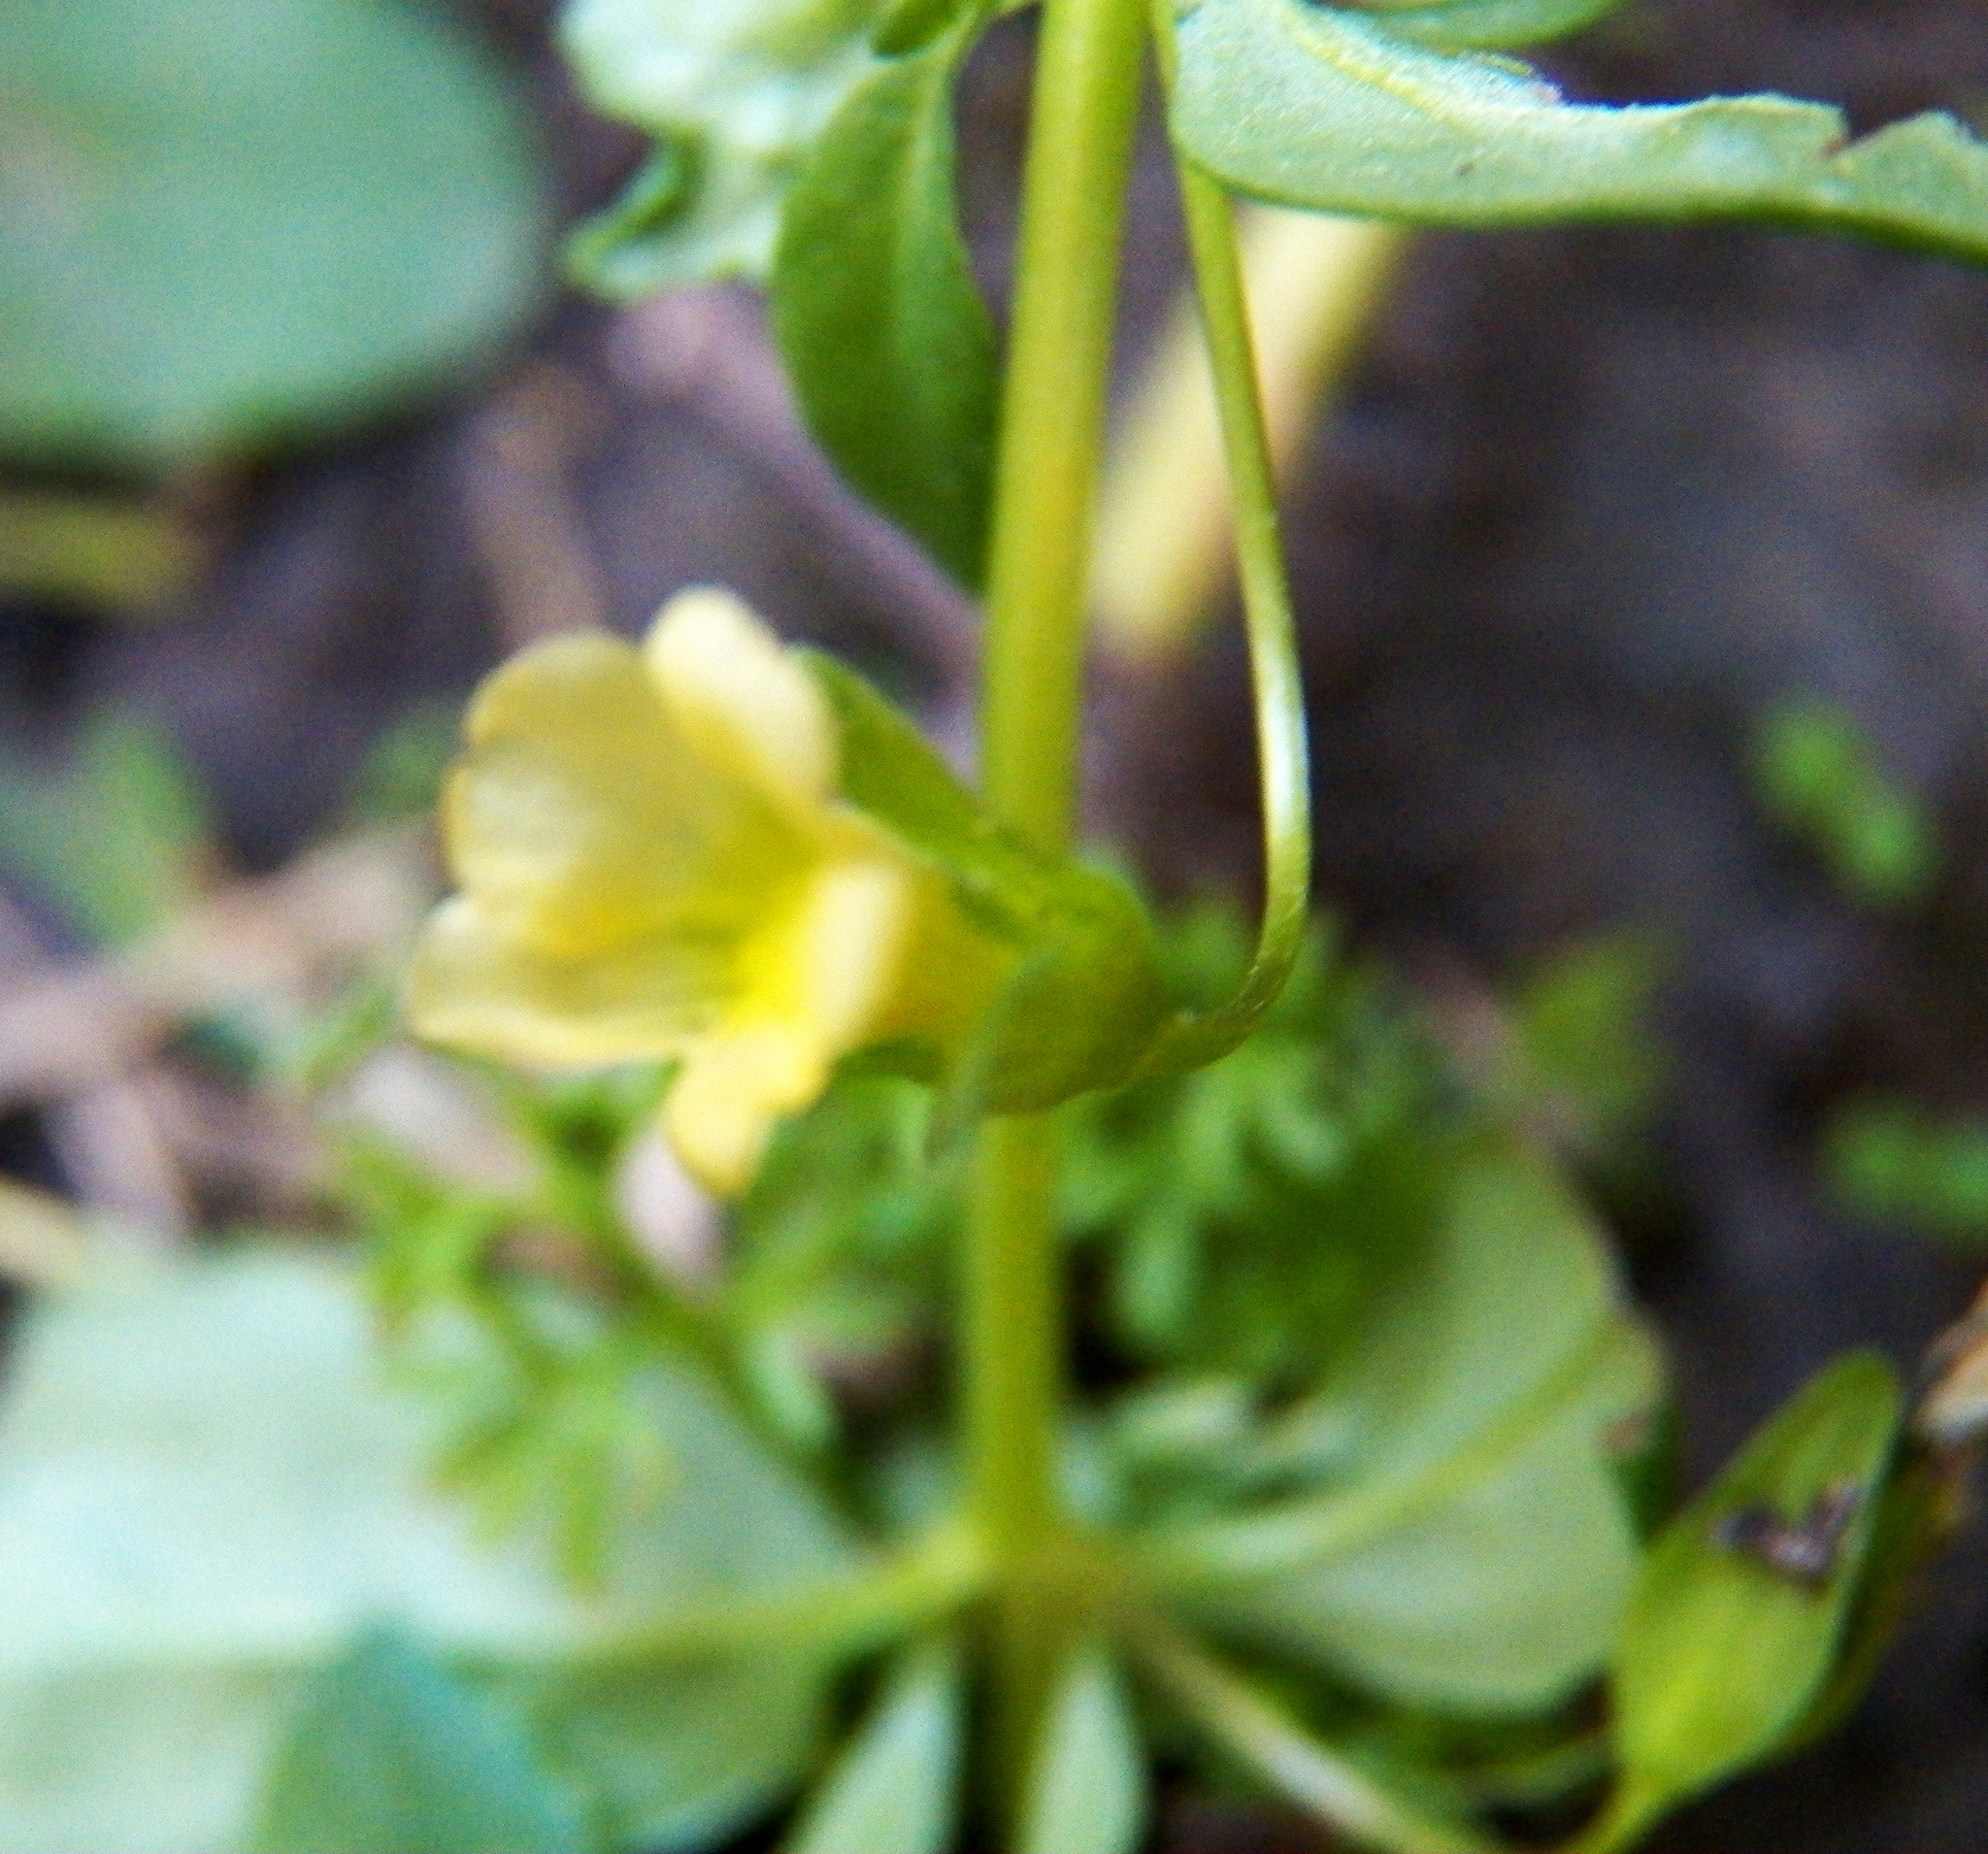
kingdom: Plantae
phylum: Tracheophyta
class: Magnoliopsida
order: Lamiales
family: Plantaginaceae
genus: Mecardonia
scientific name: Mecardonia procumbens
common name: Baby jump-up
